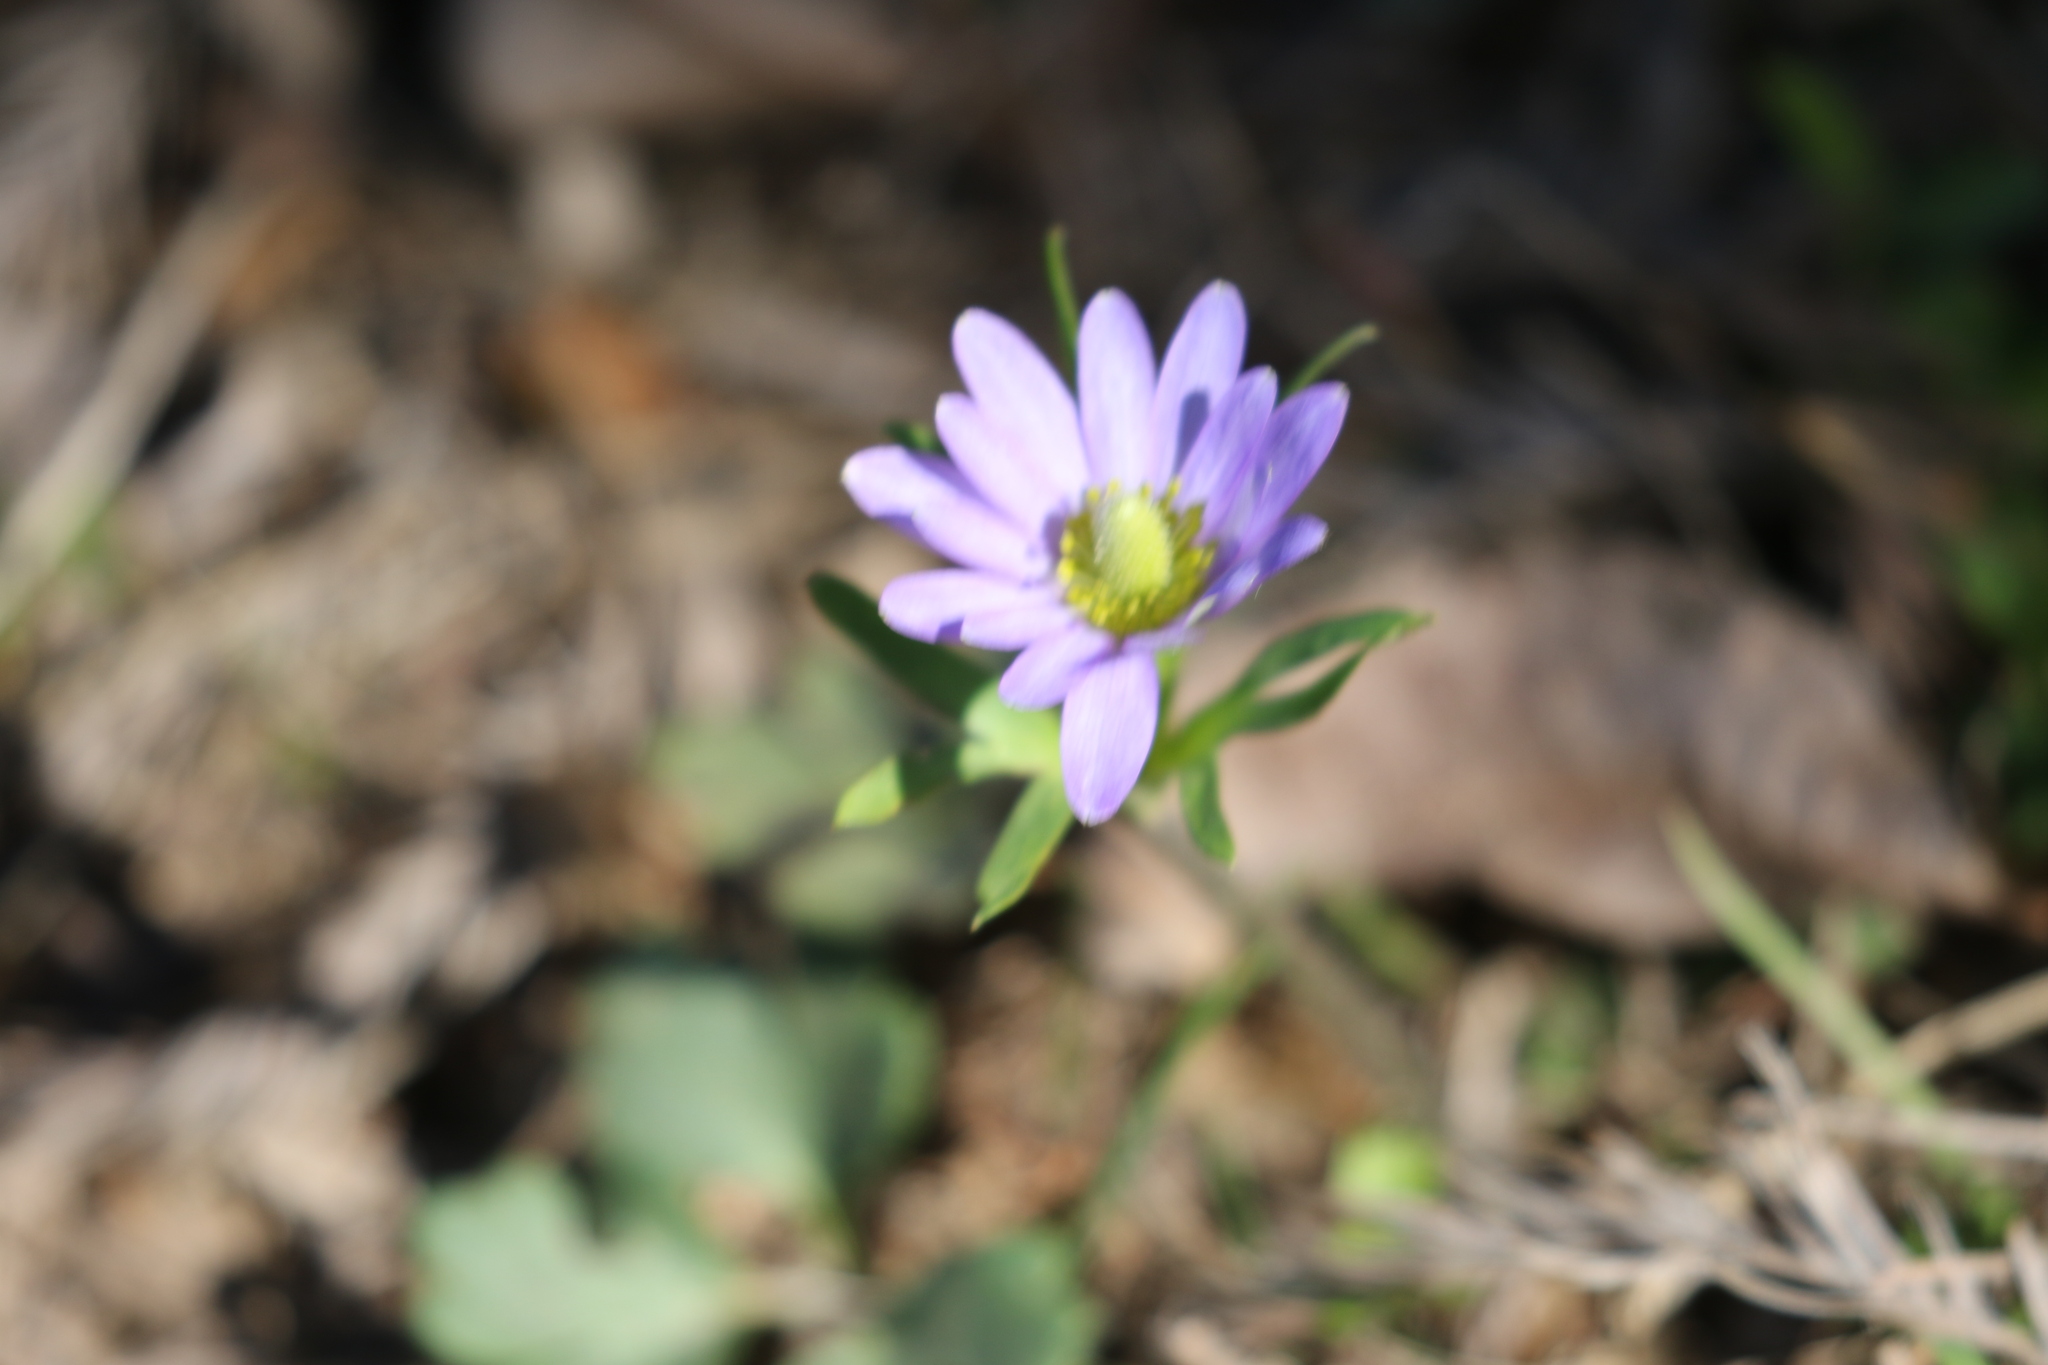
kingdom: Plantae
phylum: Tracheophyta
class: Magnoliopsida
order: Ranunculales
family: Ranunculaceae
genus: Anemone
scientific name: Anemone berlandieri
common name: Ten-petal anemone
